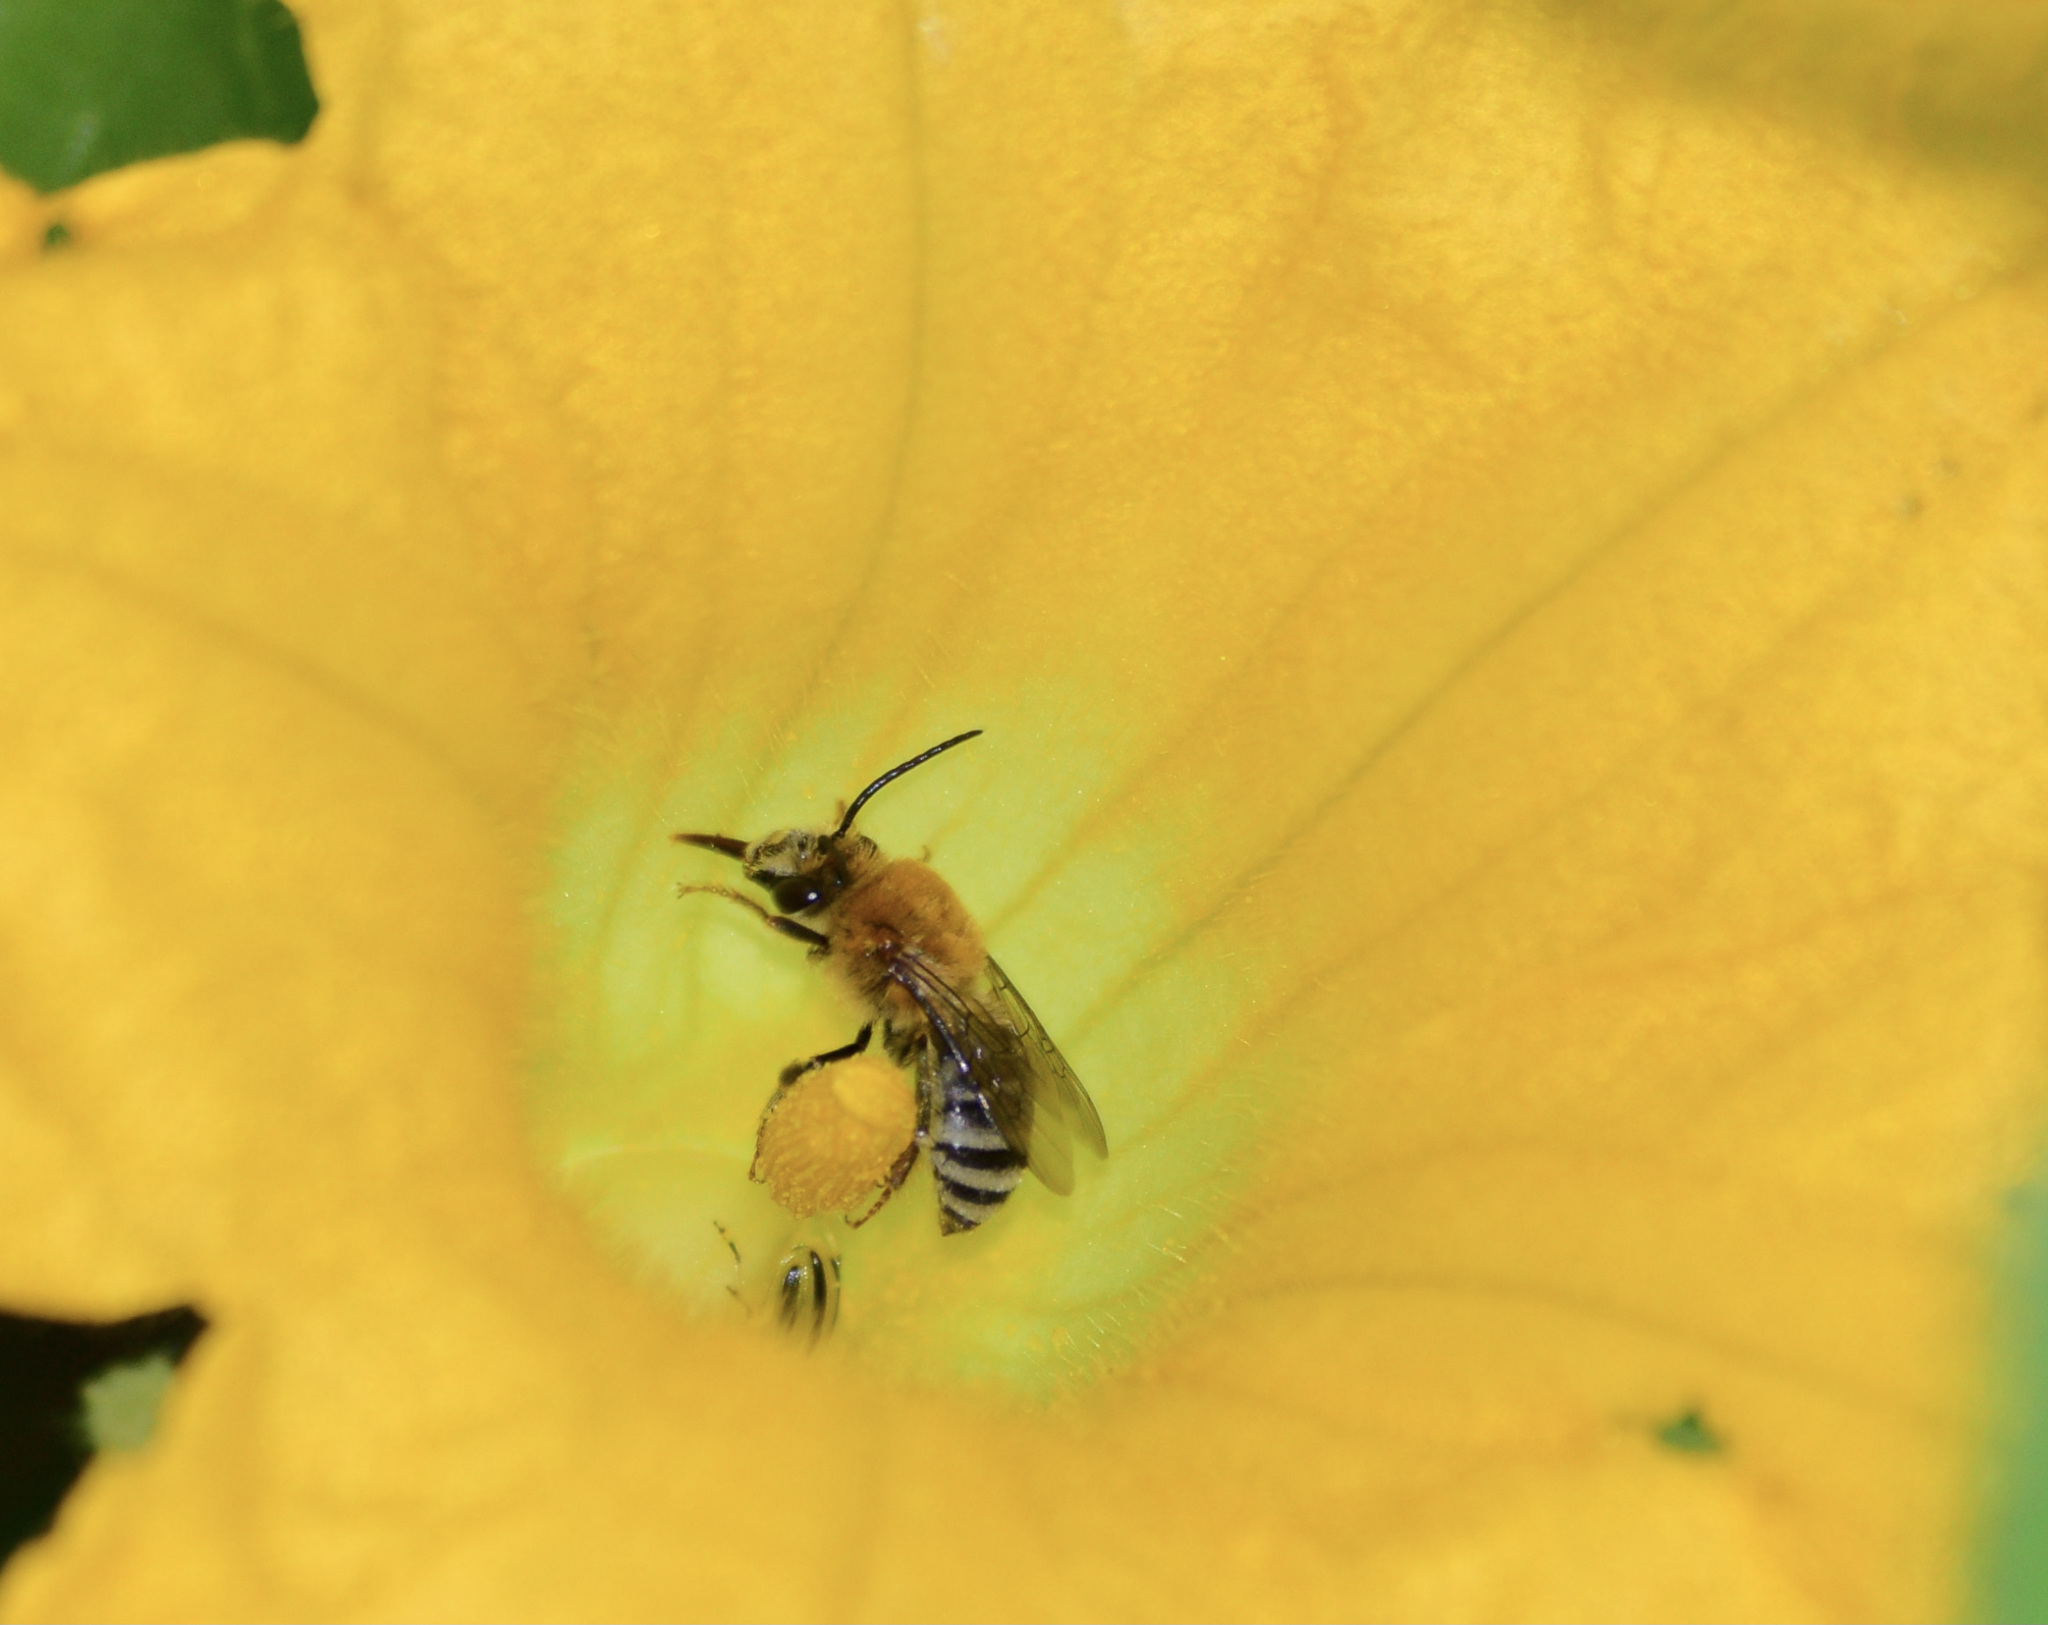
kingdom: Animalia
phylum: Arthropoda
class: Insecta
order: Hymenoptera
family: Apidae
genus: Peponapis
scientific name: Peponapis pruinosa
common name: Pruinose squash bee
